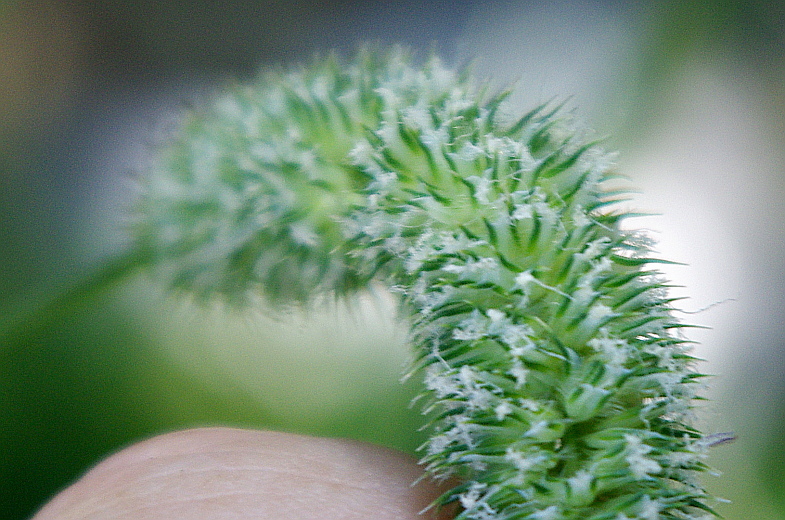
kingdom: Plantae
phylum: Tracheophyta
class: Liliopsida
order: Poales
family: Poaceae
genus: Phleum
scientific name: Phleum pratense
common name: Timothy grass
